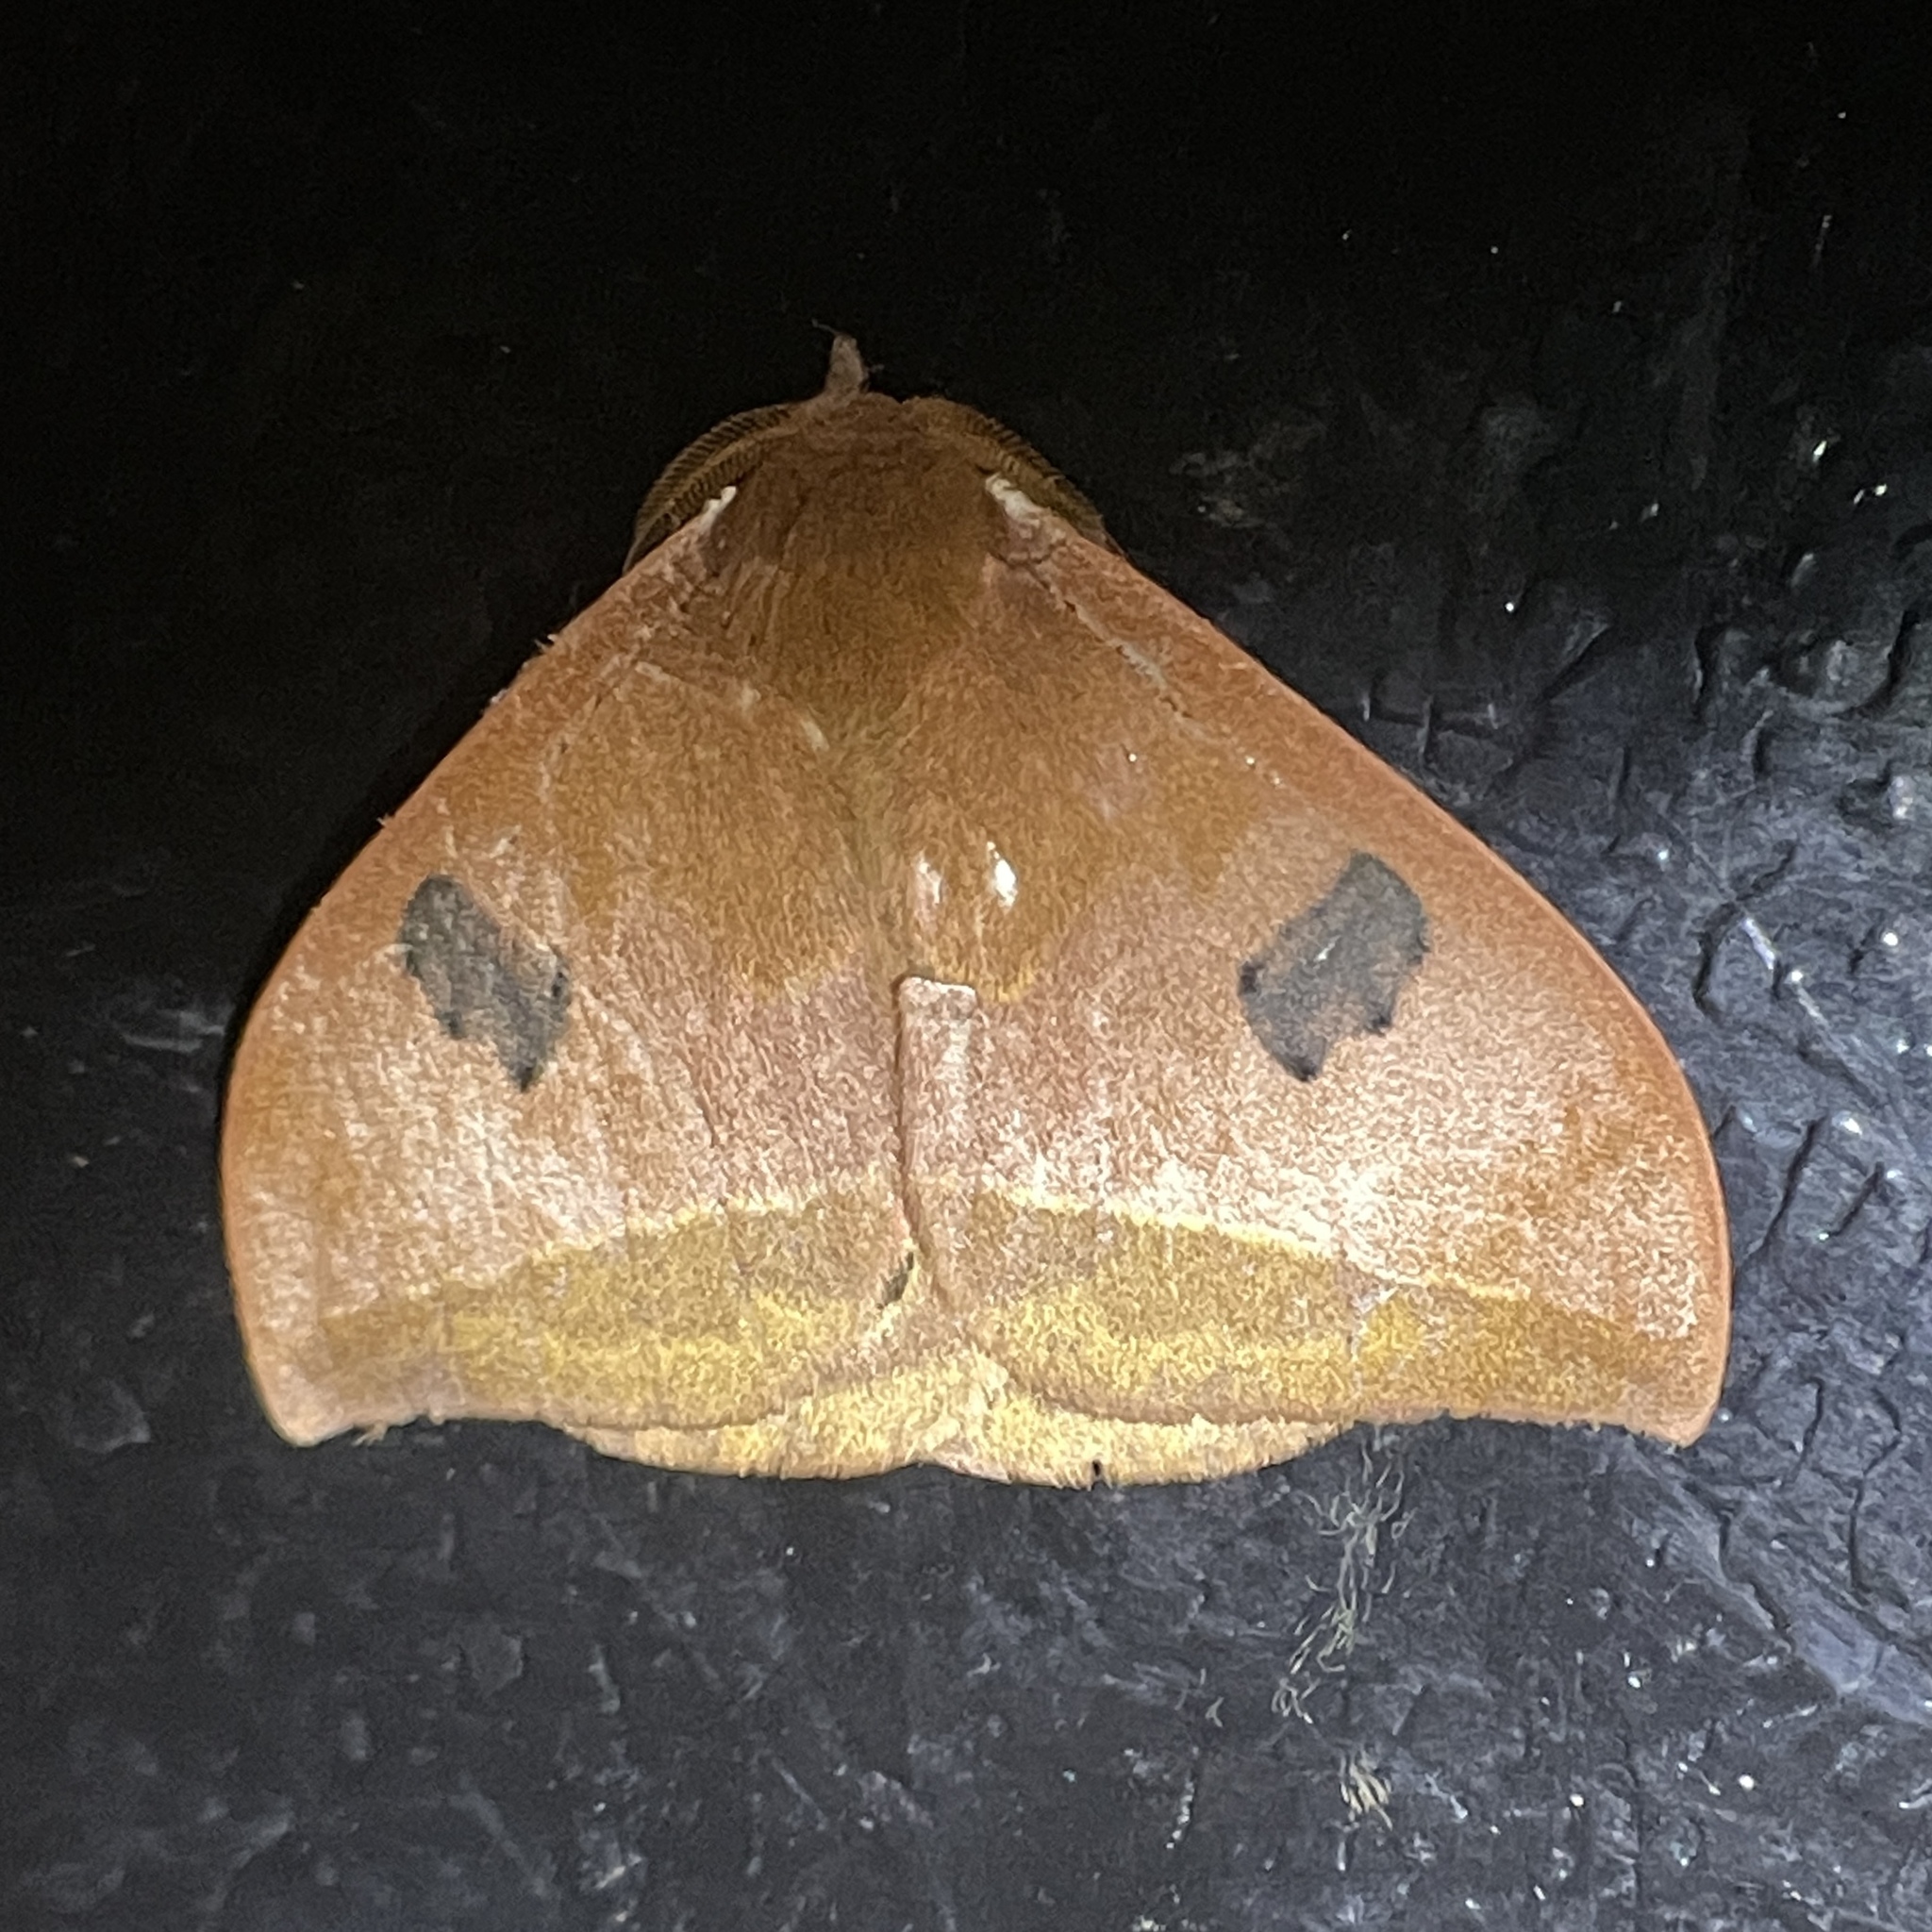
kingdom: Animalia
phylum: Arthropoda
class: Insecta
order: Lepidoptera
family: Saturniidae
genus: Automeris
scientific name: Automeris midea
